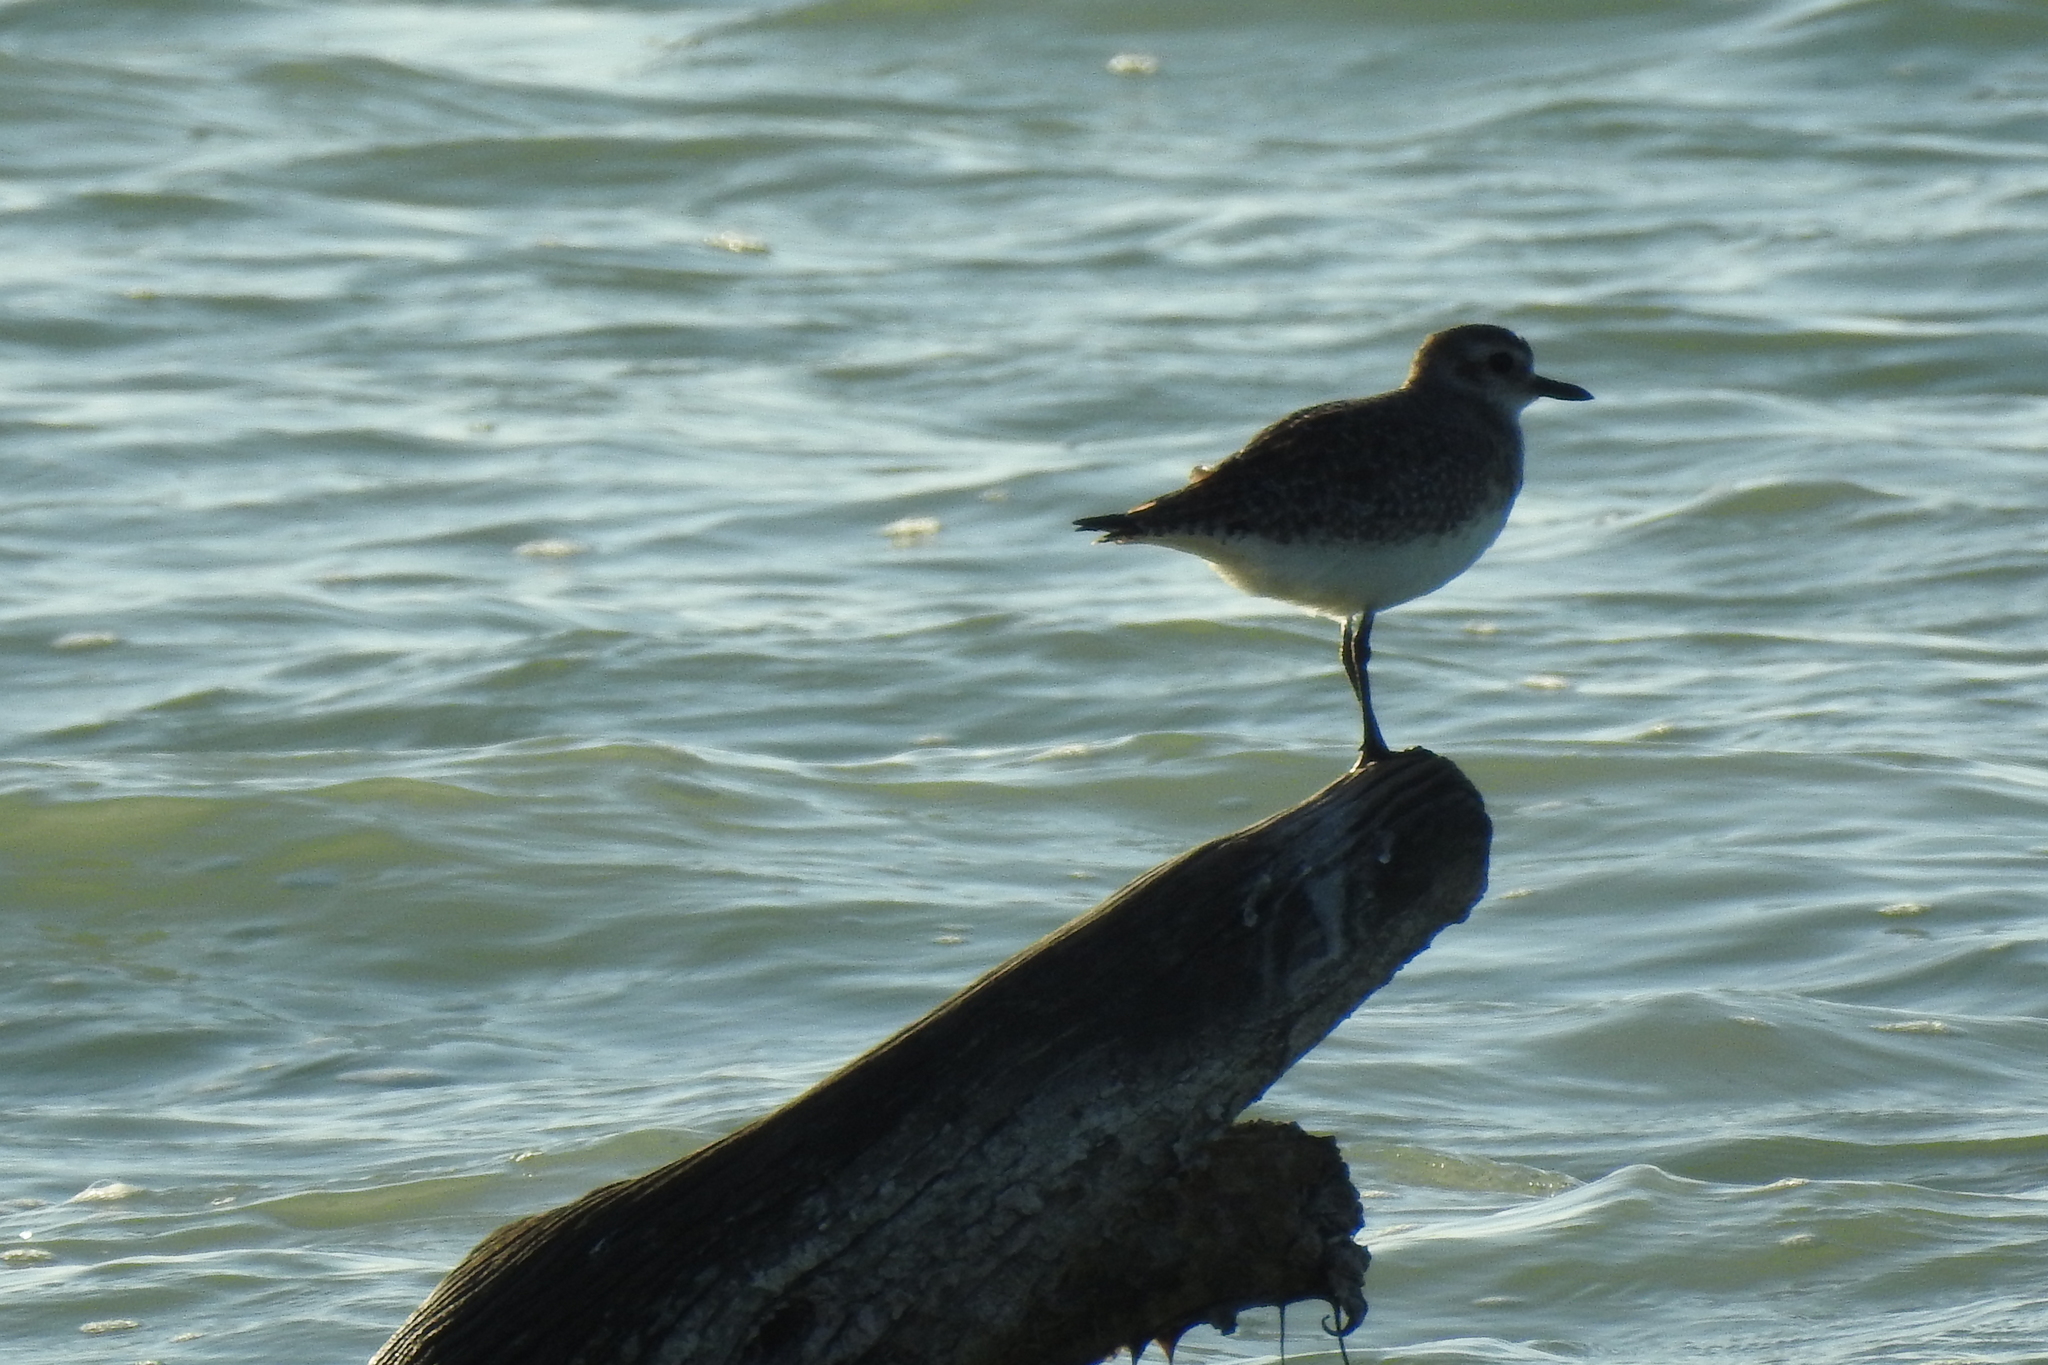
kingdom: Animalia
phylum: Chordata
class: Aves
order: Charadriiformes
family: Charadriidae
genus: Pluvialis
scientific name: Pluvialis squatarola
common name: Grey plover
